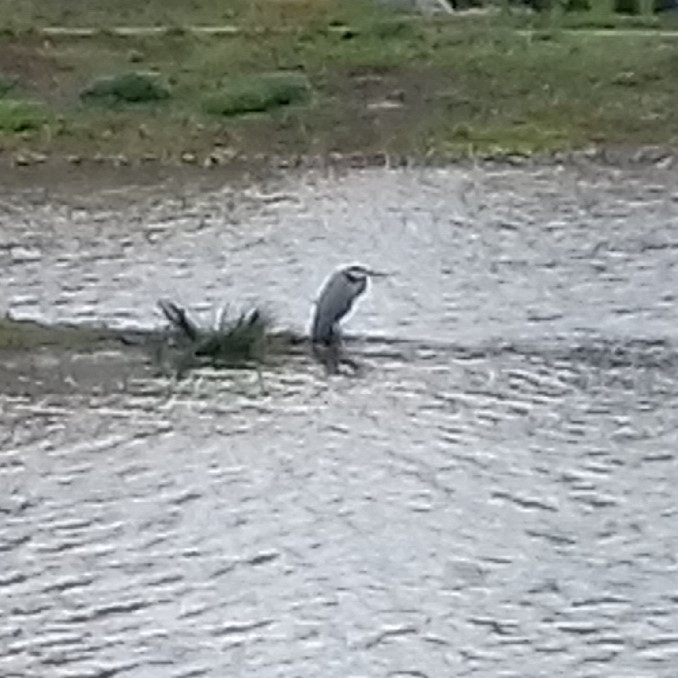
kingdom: Animalia
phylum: Chordata
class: Aves
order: Pelecaniformes
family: Ardeidae
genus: Ardea
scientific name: Ardea cinerea
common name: Grey heron
